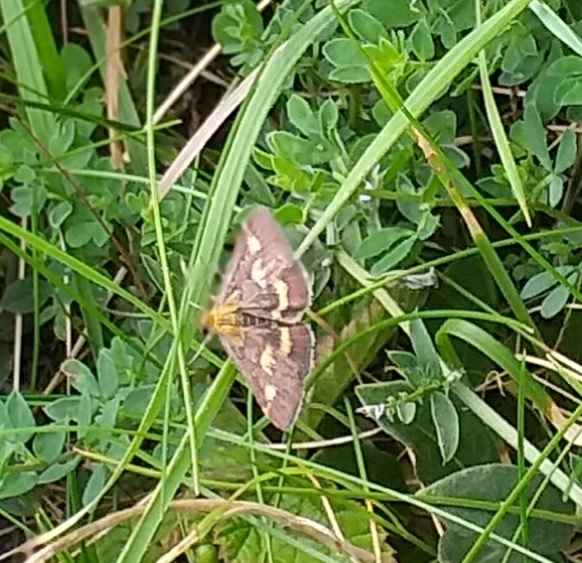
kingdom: Animalia
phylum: Arthropoda
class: Insecta
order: Lepidoptera
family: Crambidae
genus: Pyrausta
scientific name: Pyrausta purpuralis
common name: Common purple & gold
